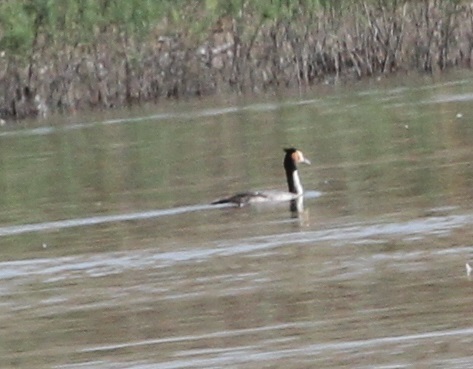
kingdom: Animalia
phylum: Chordata
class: Aves
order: Podicipediformes
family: Podicipedidae
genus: Podiceps
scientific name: Podiceps cristatus
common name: Great crested grebe
